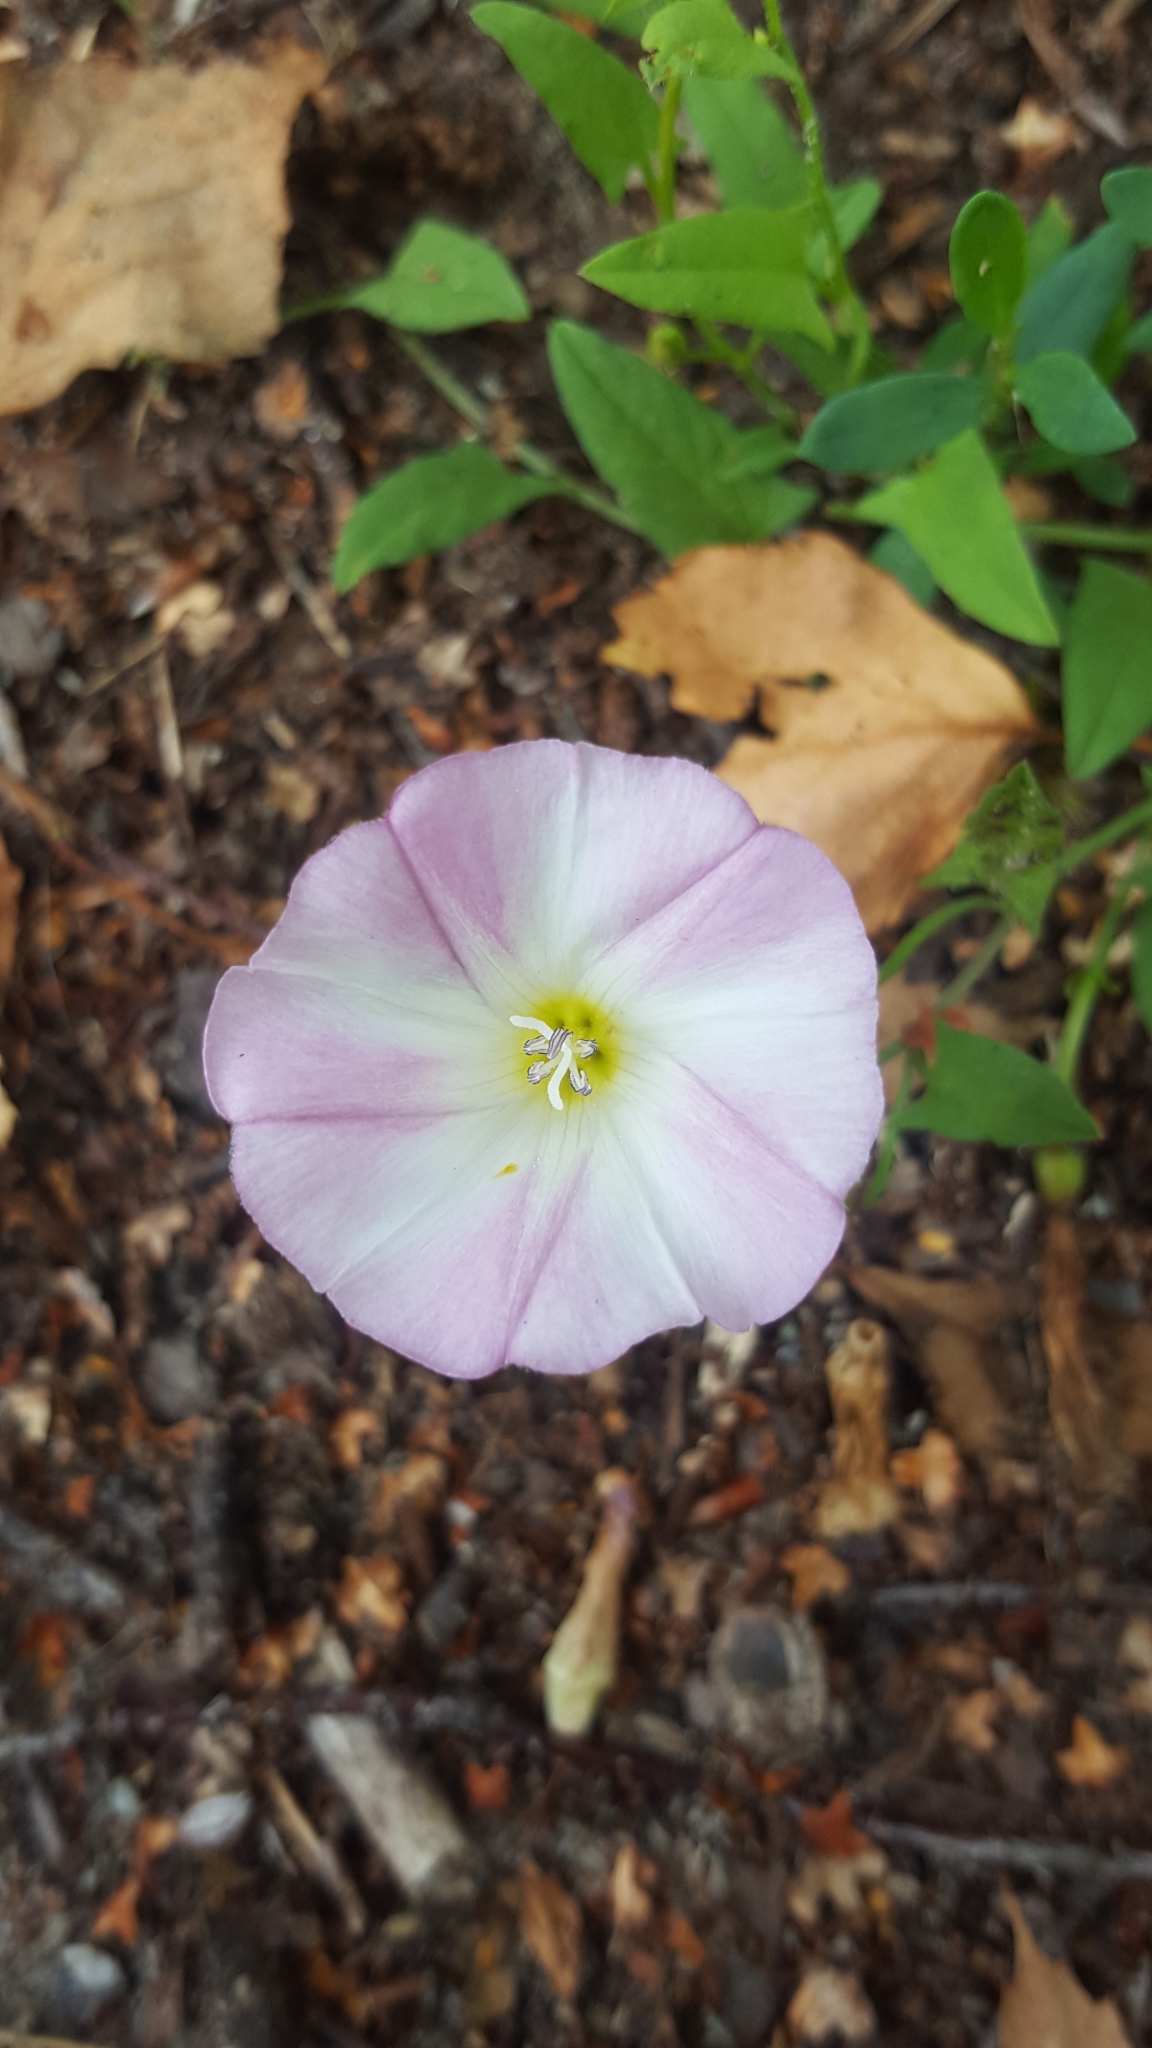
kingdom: Plantae
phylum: Tracheophyta
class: Magnoliopsida
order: Solanales
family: Convolvulaceae
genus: Convolvulus
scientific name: Convolvulus arvensis
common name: Field bindweed
